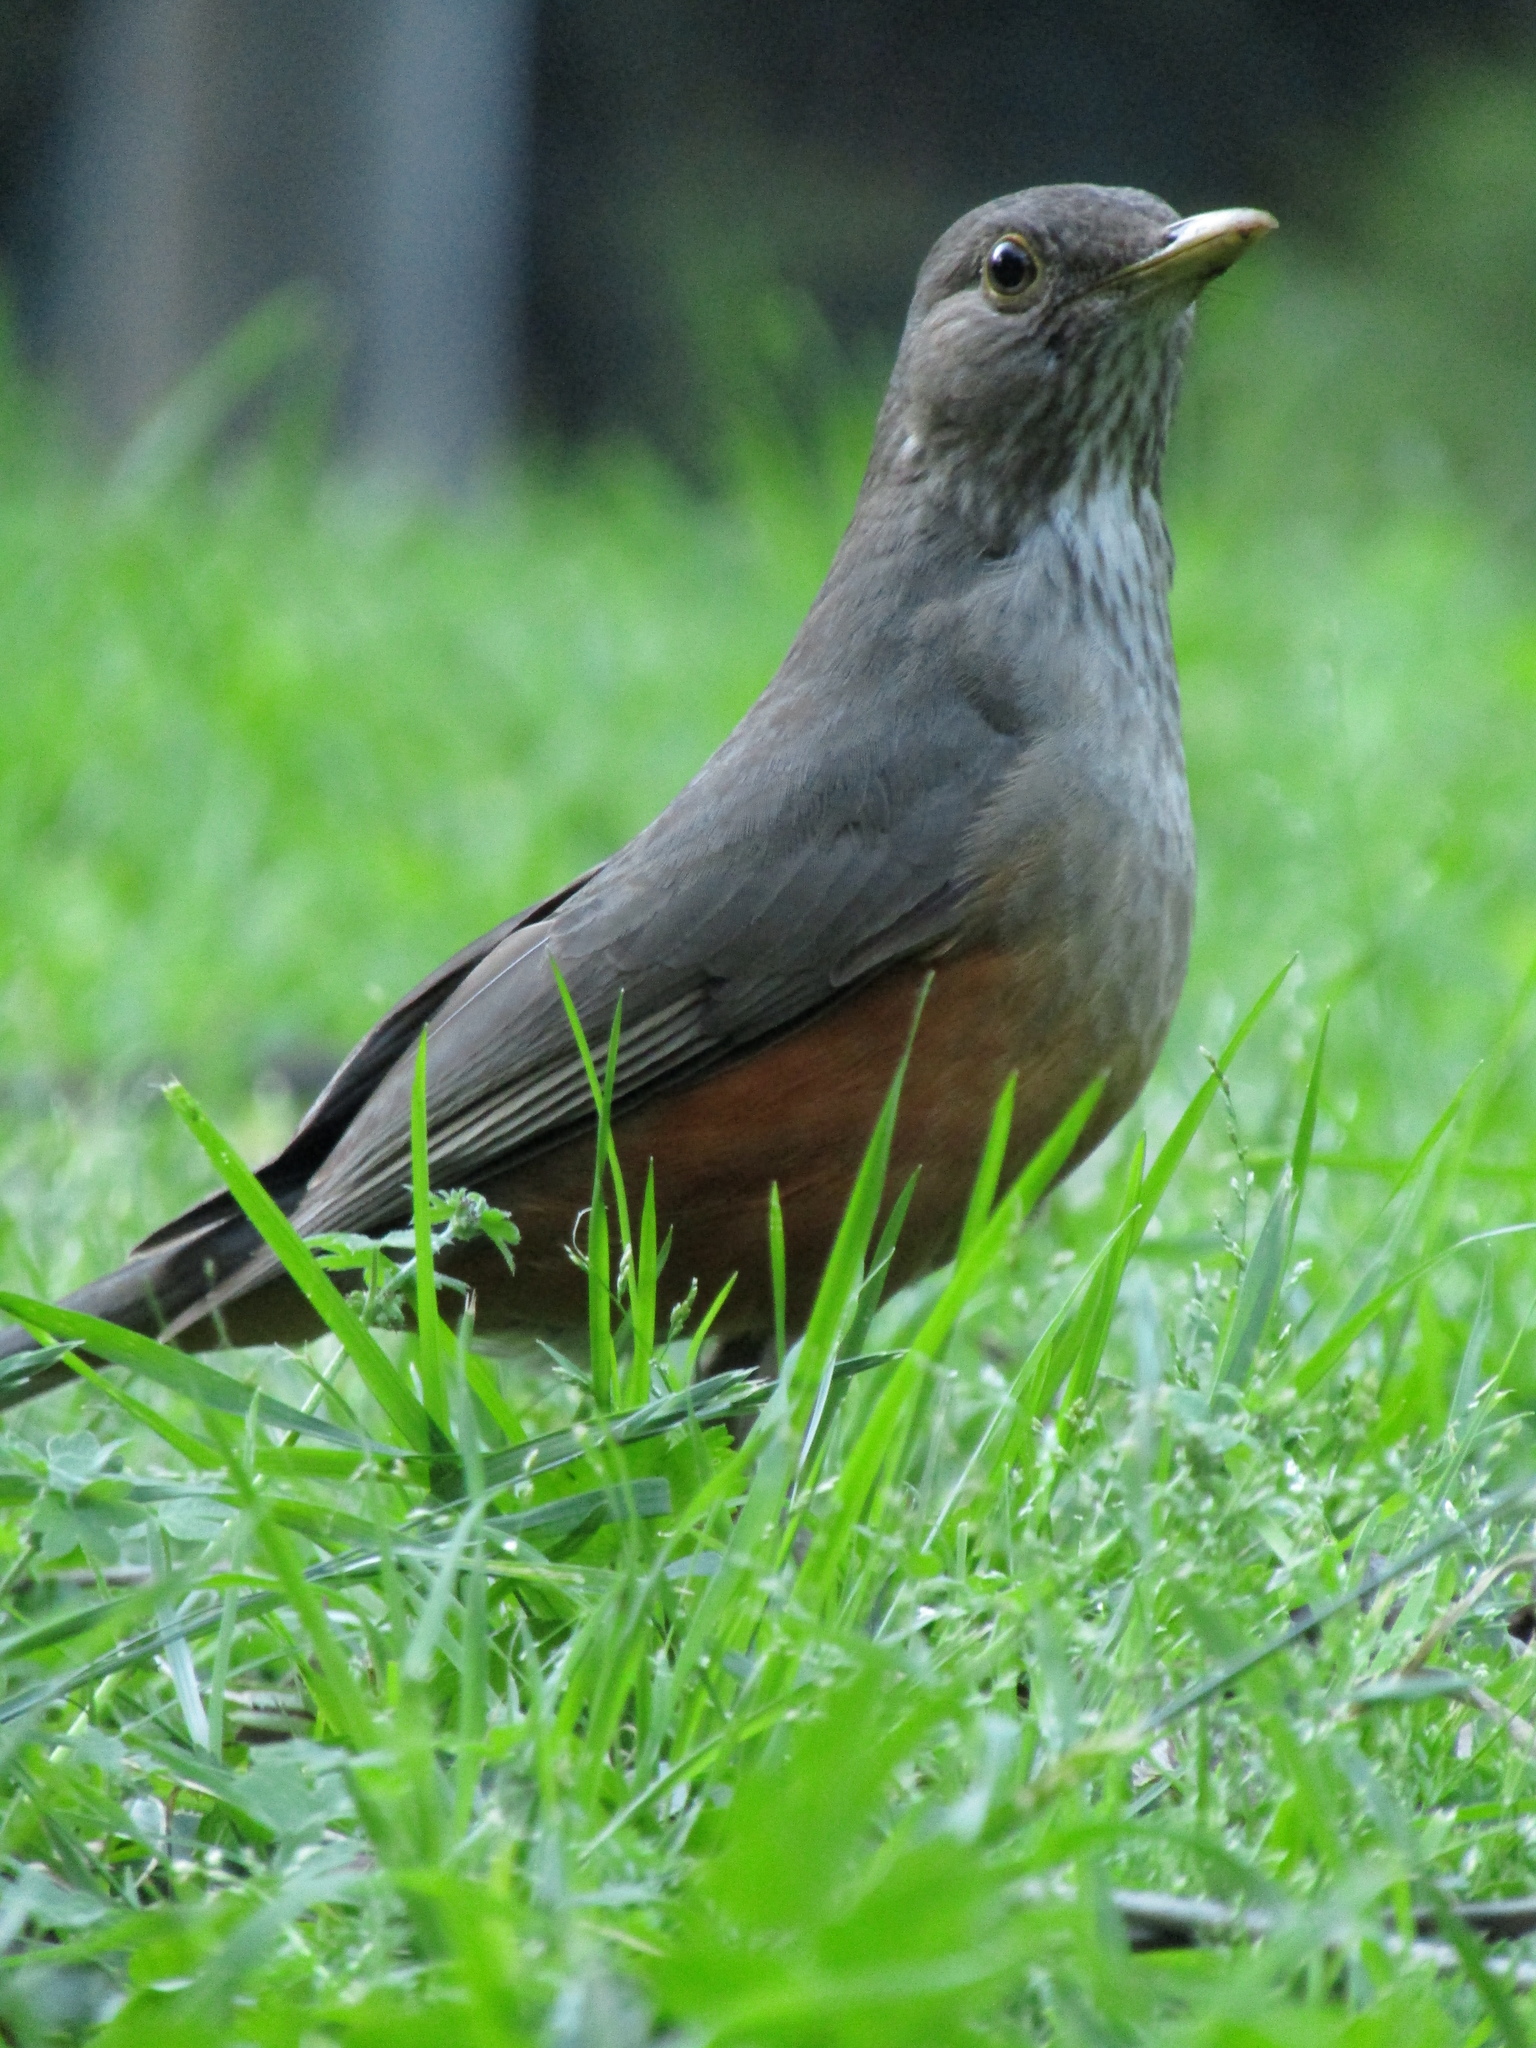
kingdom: Animalia
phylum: Chordata
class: Aves
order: Passeriformes
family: Turdidae
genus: Turdus
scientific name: Turdus rufiventris
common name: Rufous-bellied thrush
